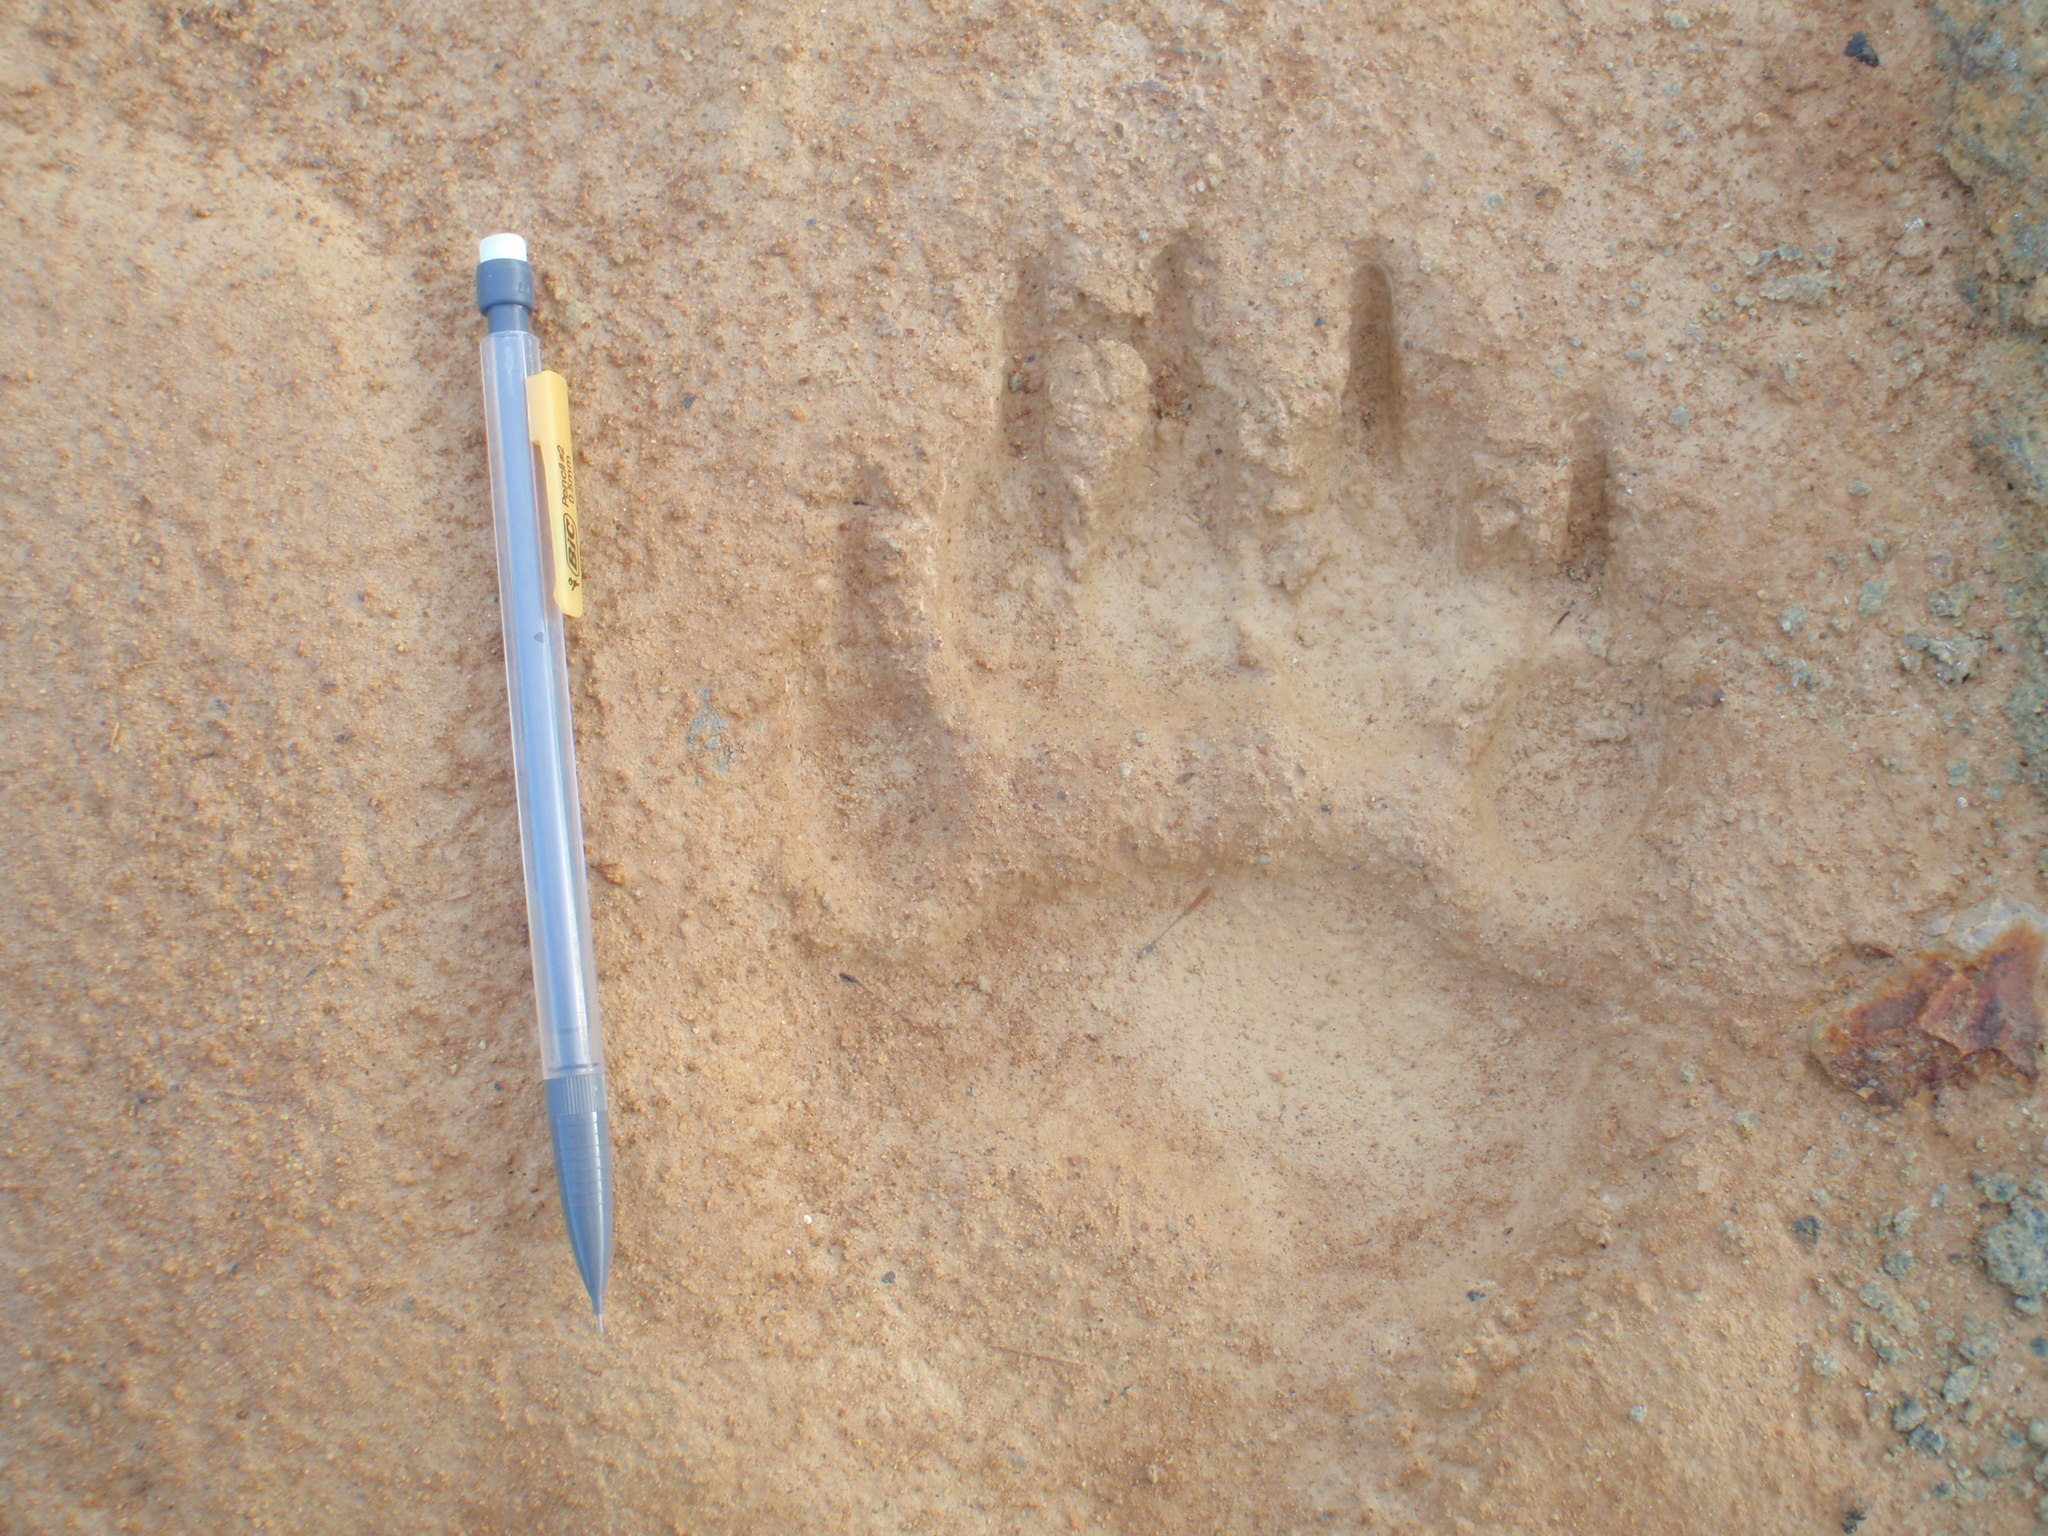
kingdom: Animalia
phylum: Chordata
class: Mammalia
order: Carnivora
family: Ursidae
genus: Ursus
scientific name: Ursus americanus
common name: American black bear
